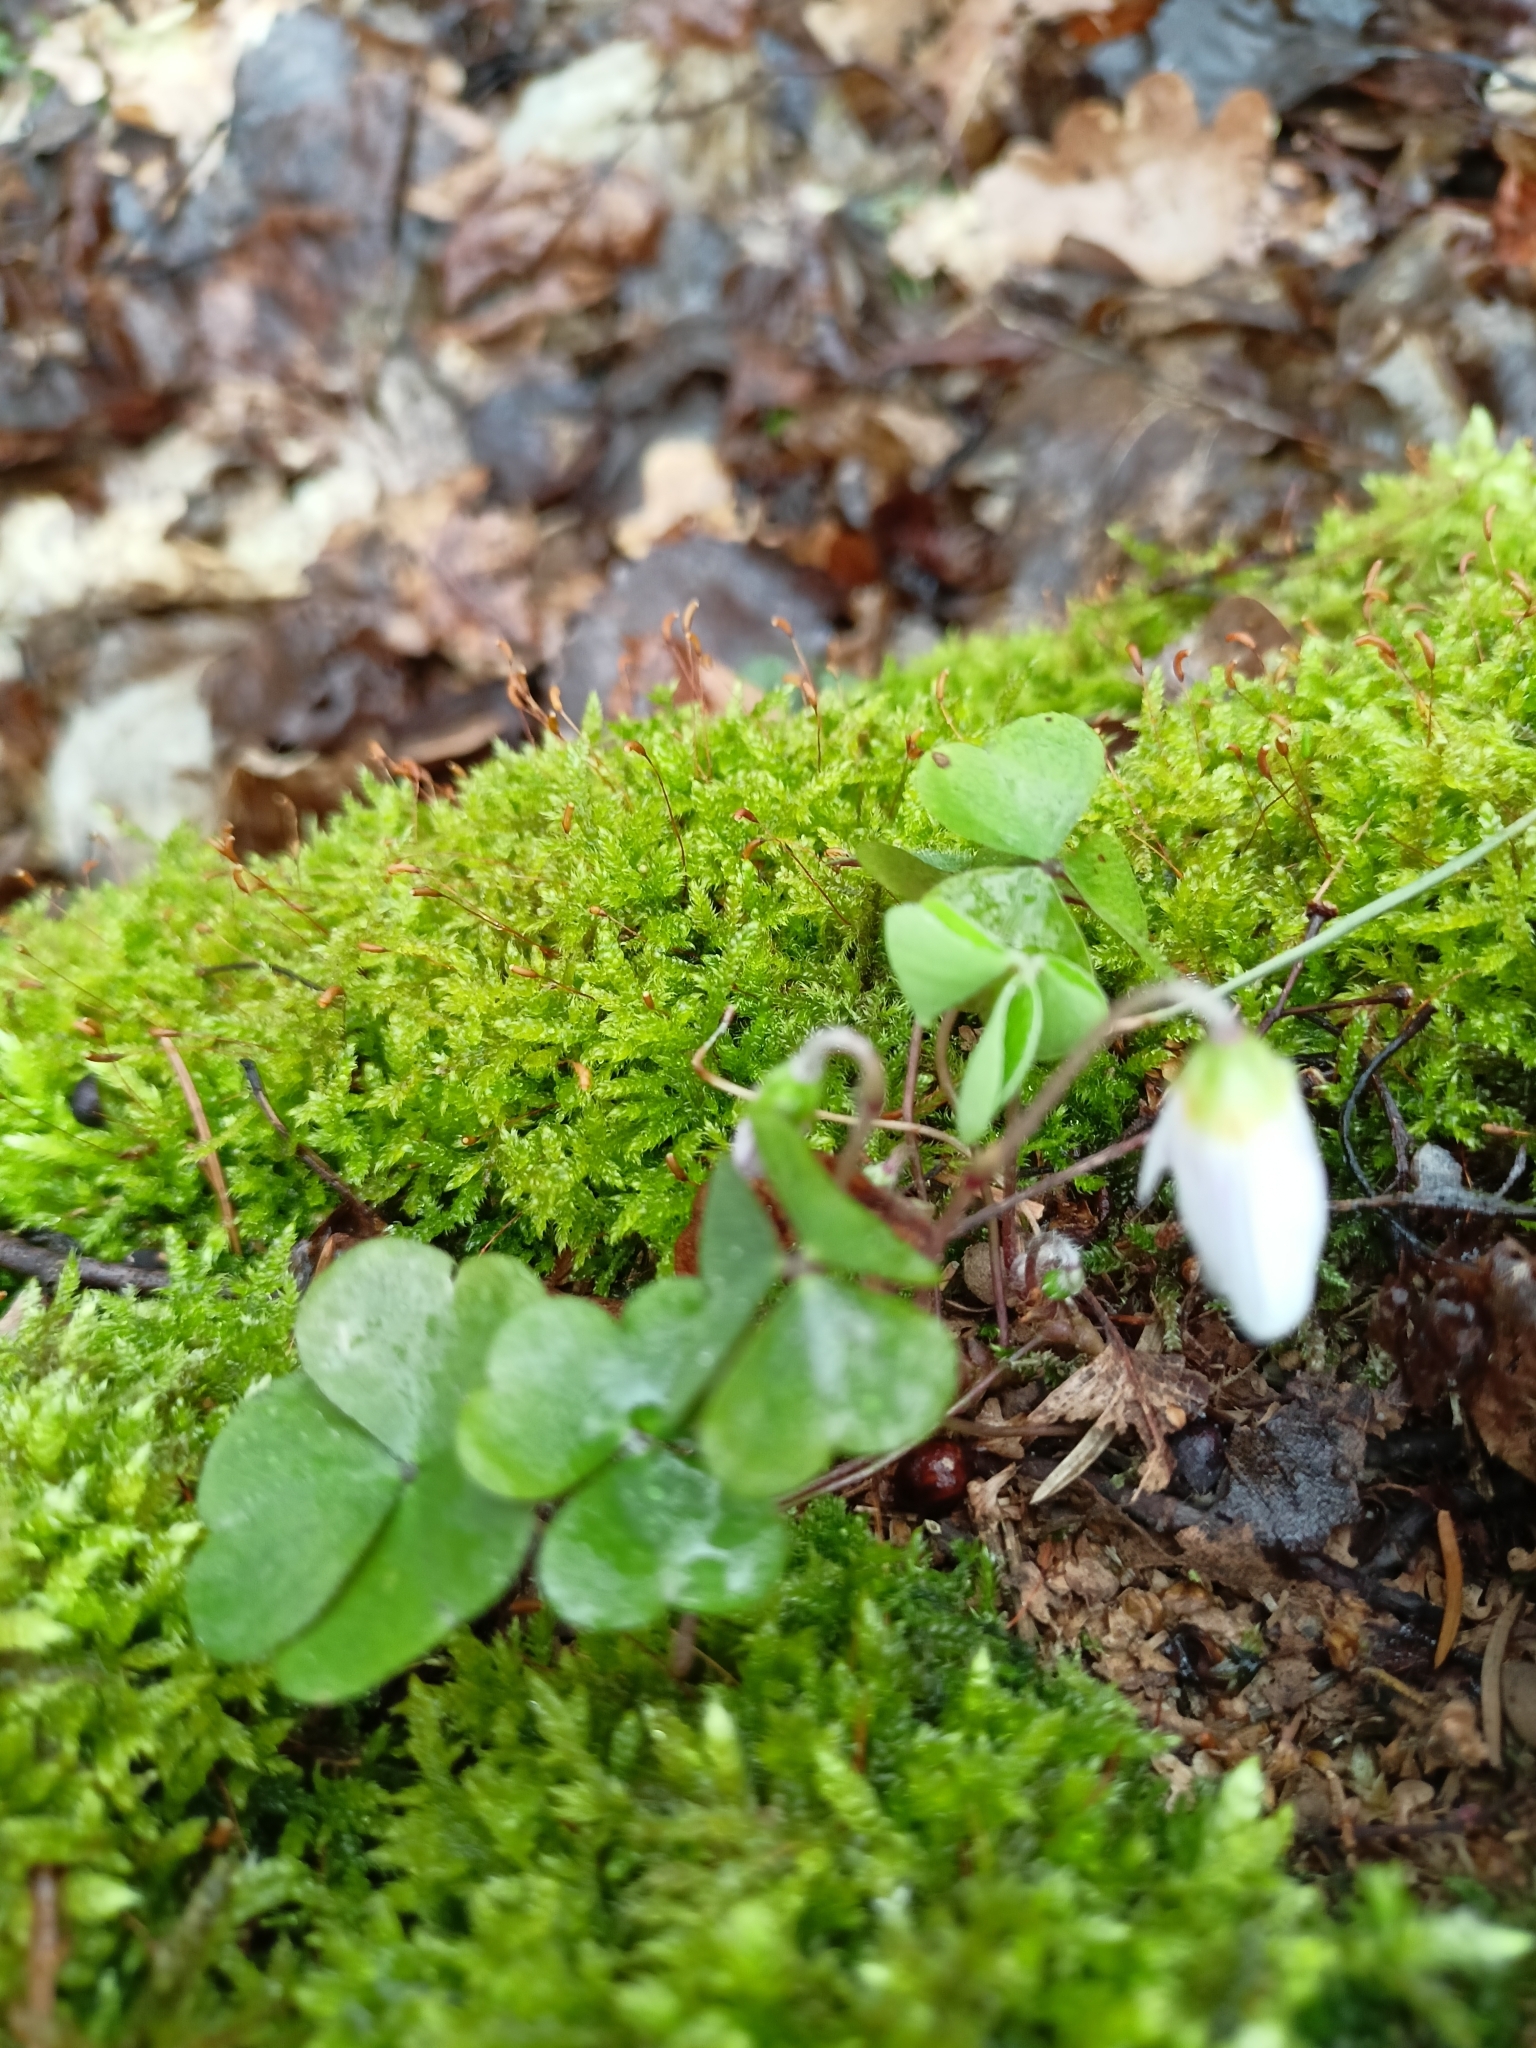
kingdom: Plantae
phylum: Tracheophyta
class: Magnoliopsida
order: Oxalidales
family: Oxalidaceae
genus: Oxalis
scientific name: Oxalis acetosella
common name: Wood-sorrel
